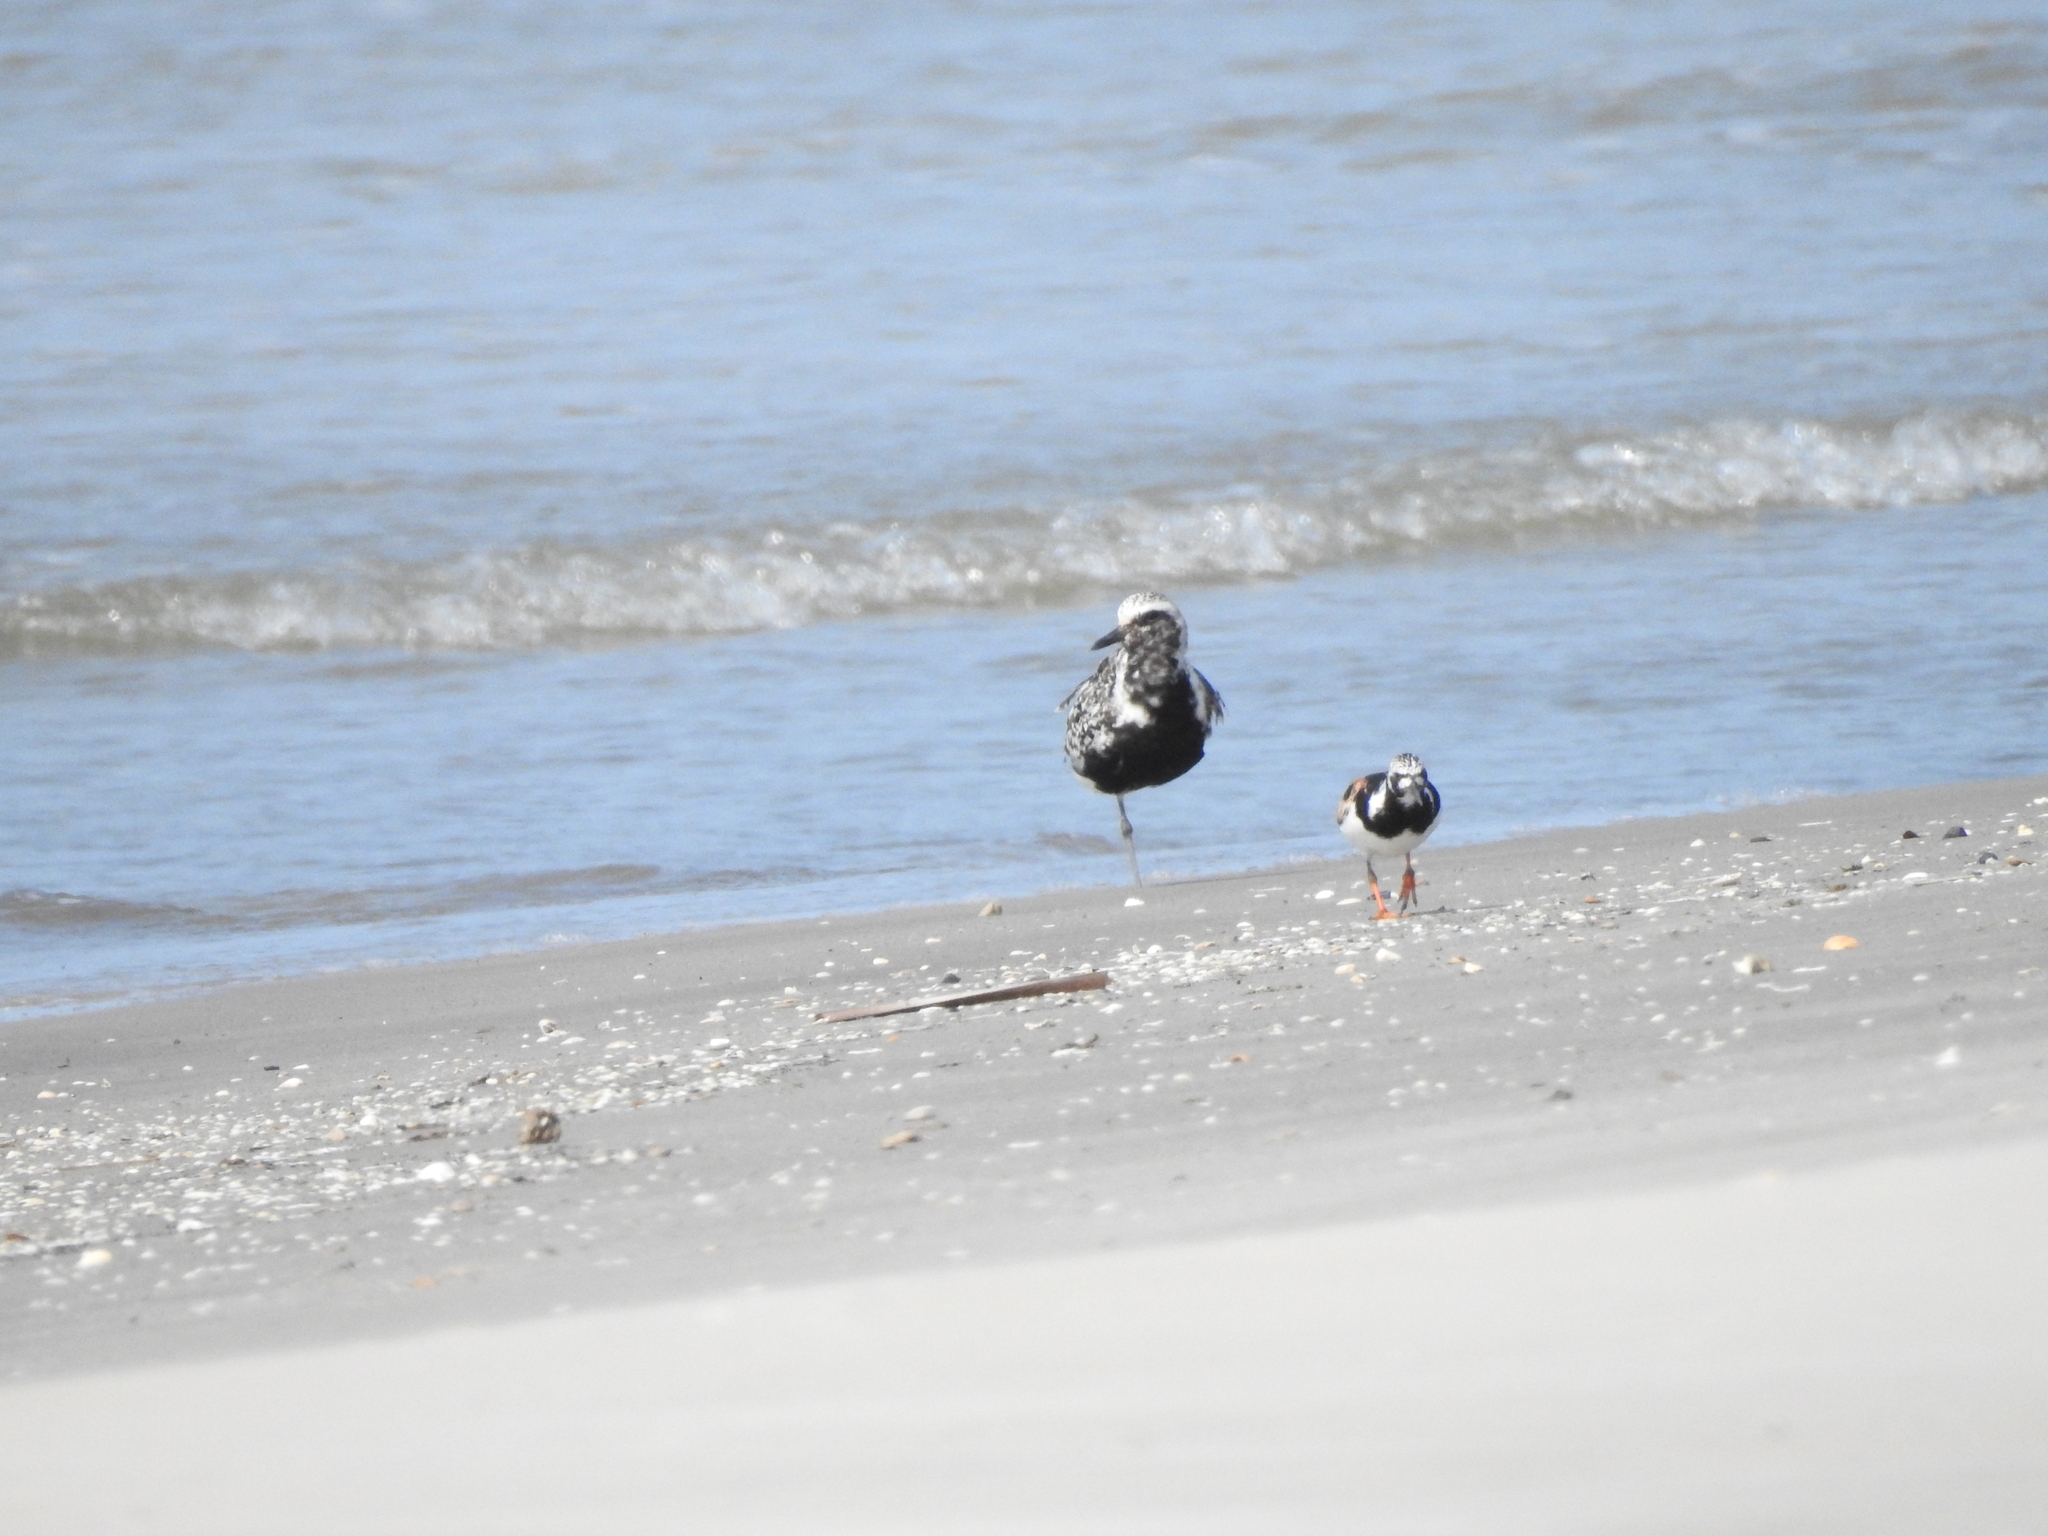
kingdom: Animalia
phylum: Chordata
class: Aves
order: Charadriiformes
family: Charadriidae
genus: Pluvialis
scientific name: Pluvialis squatarola
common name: Grey plover
